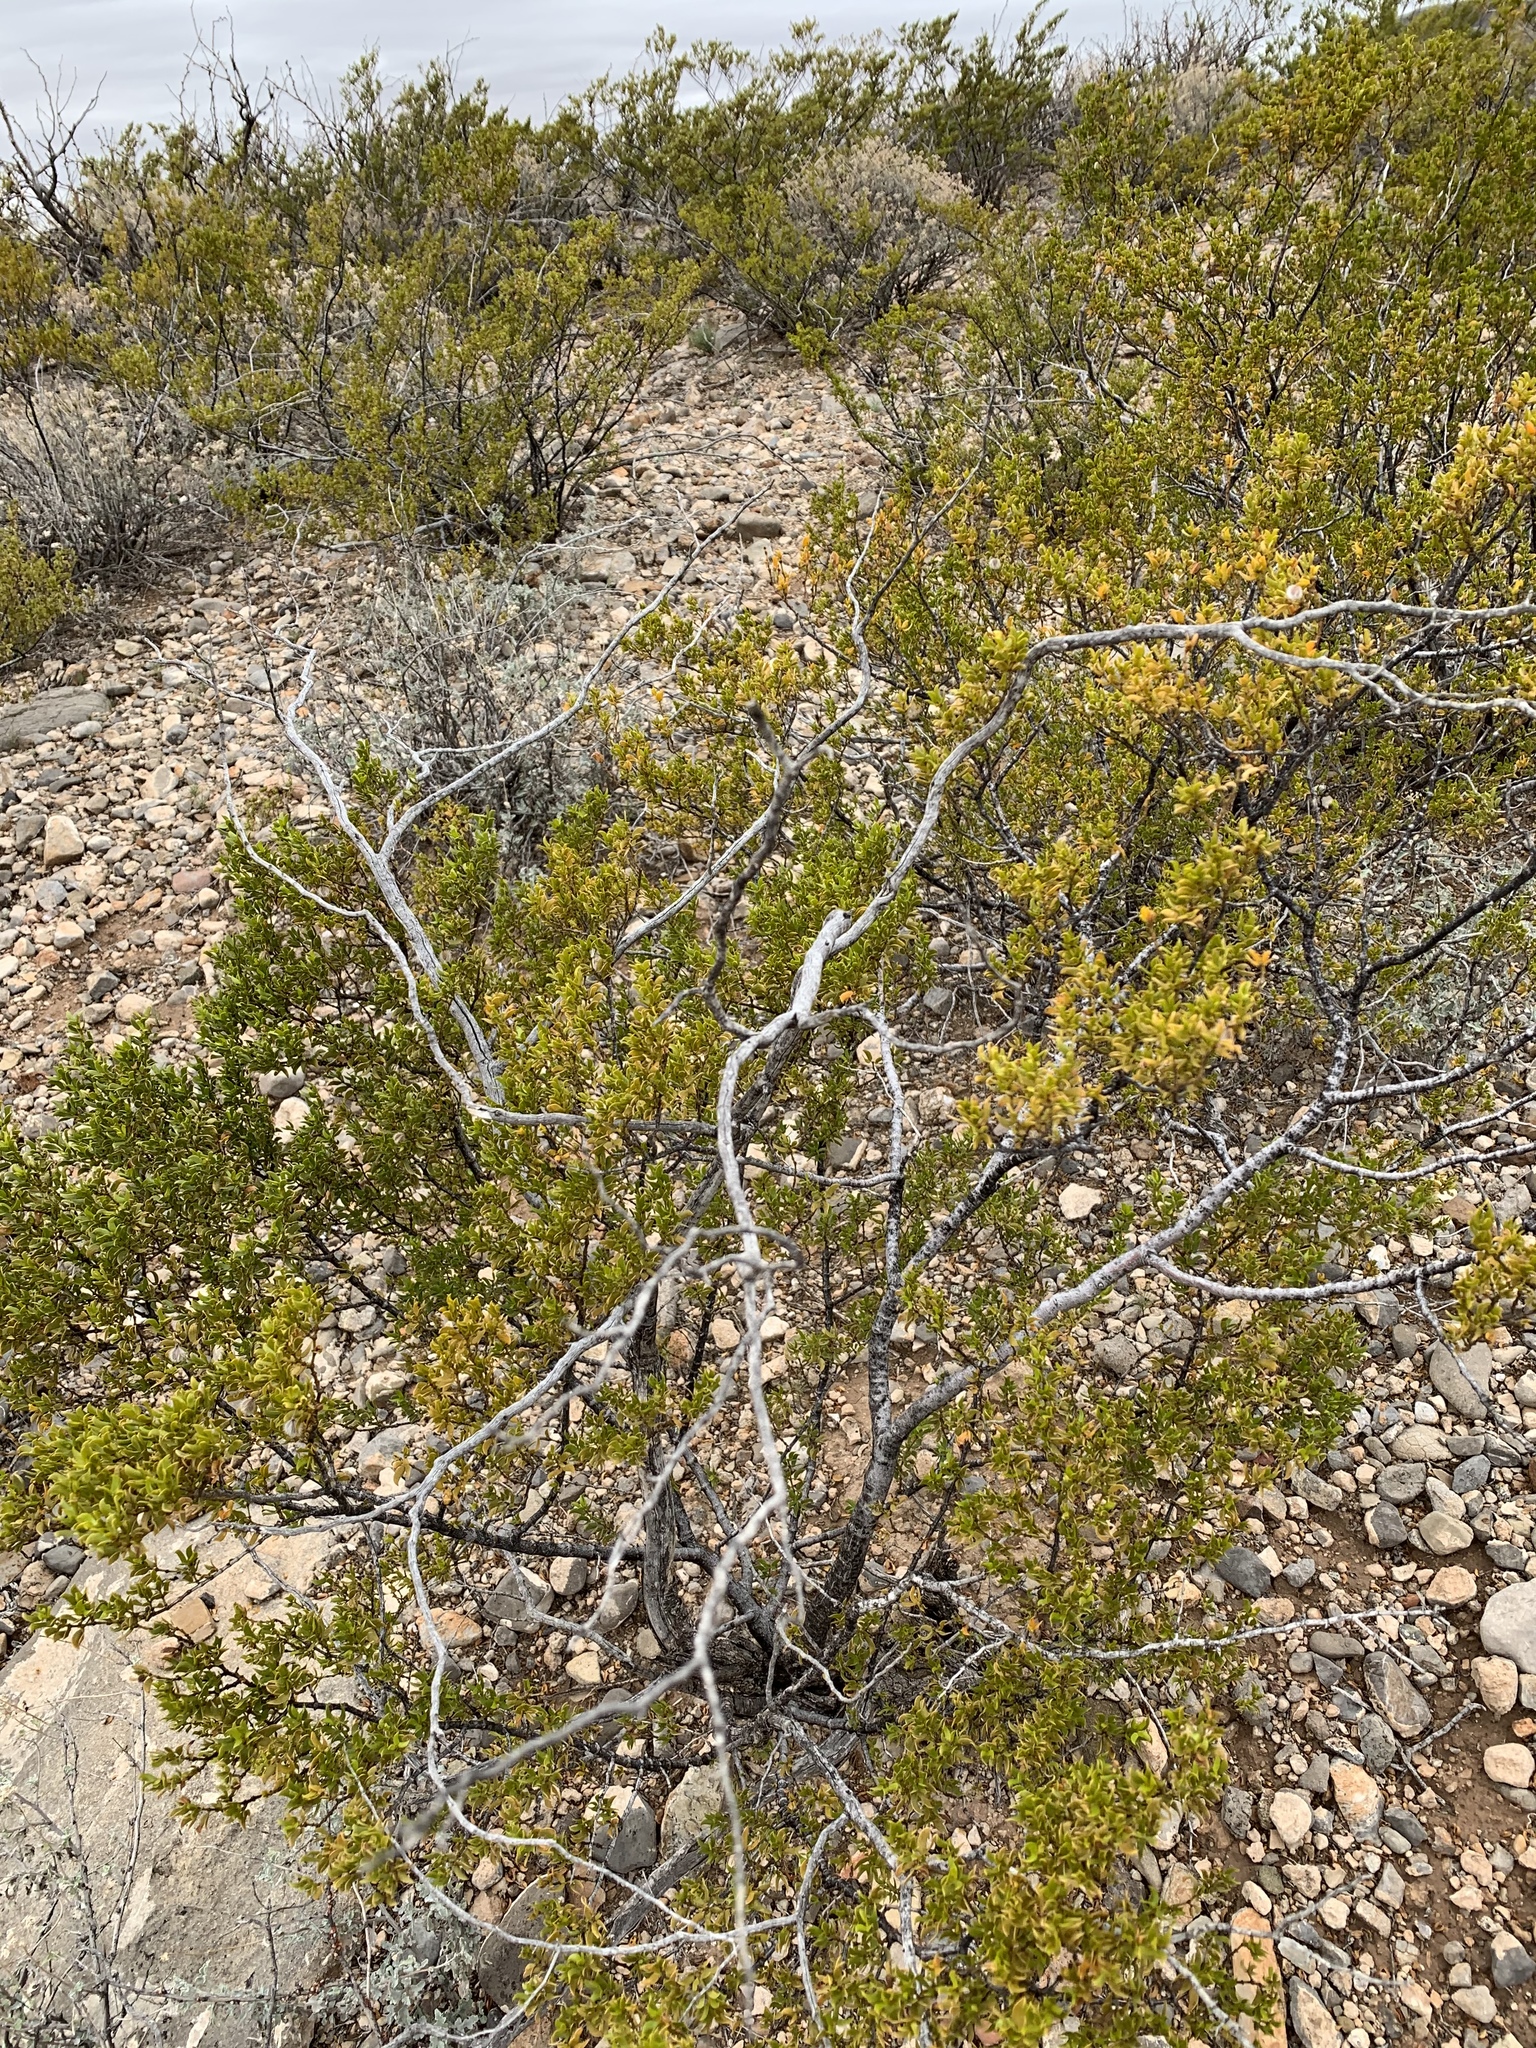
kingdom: Plantae
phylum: Tracheophyta
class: Magnoliopsida
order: Zygophyllales
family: Zygophyllaceae
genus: Larrea
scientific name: Larrea tridentata
